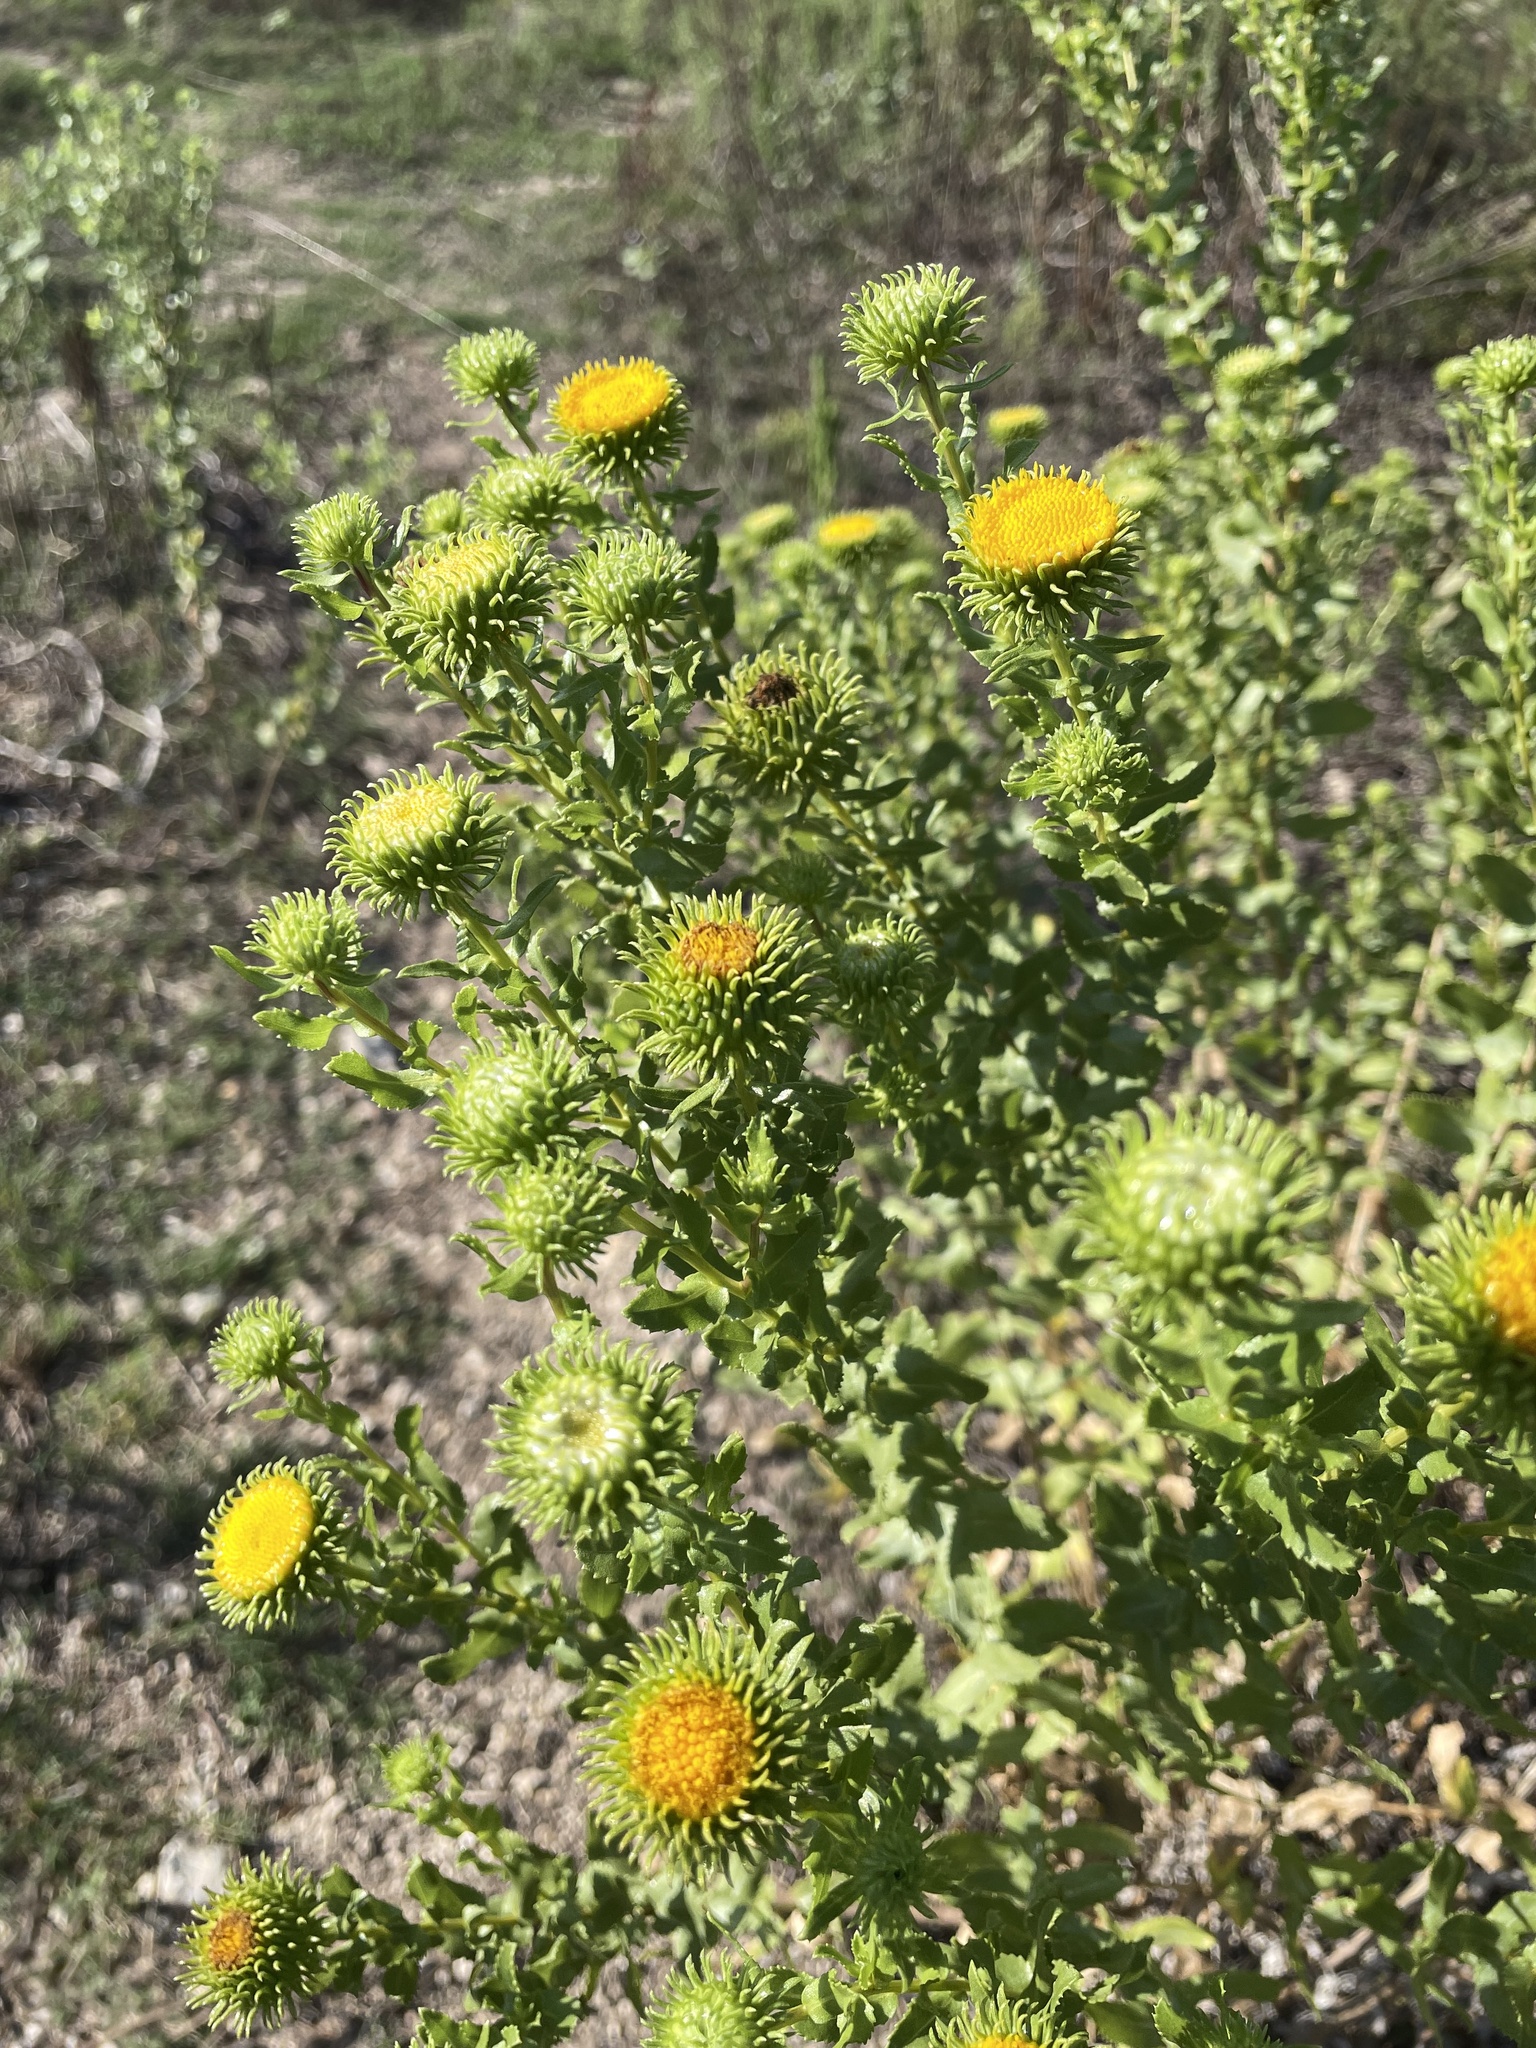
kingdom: Plantae
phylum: Tracheophyta
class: Magnoliopsida
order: Asterales
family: Asteraceae
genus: Grindelia
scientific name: Grindelia nuda
